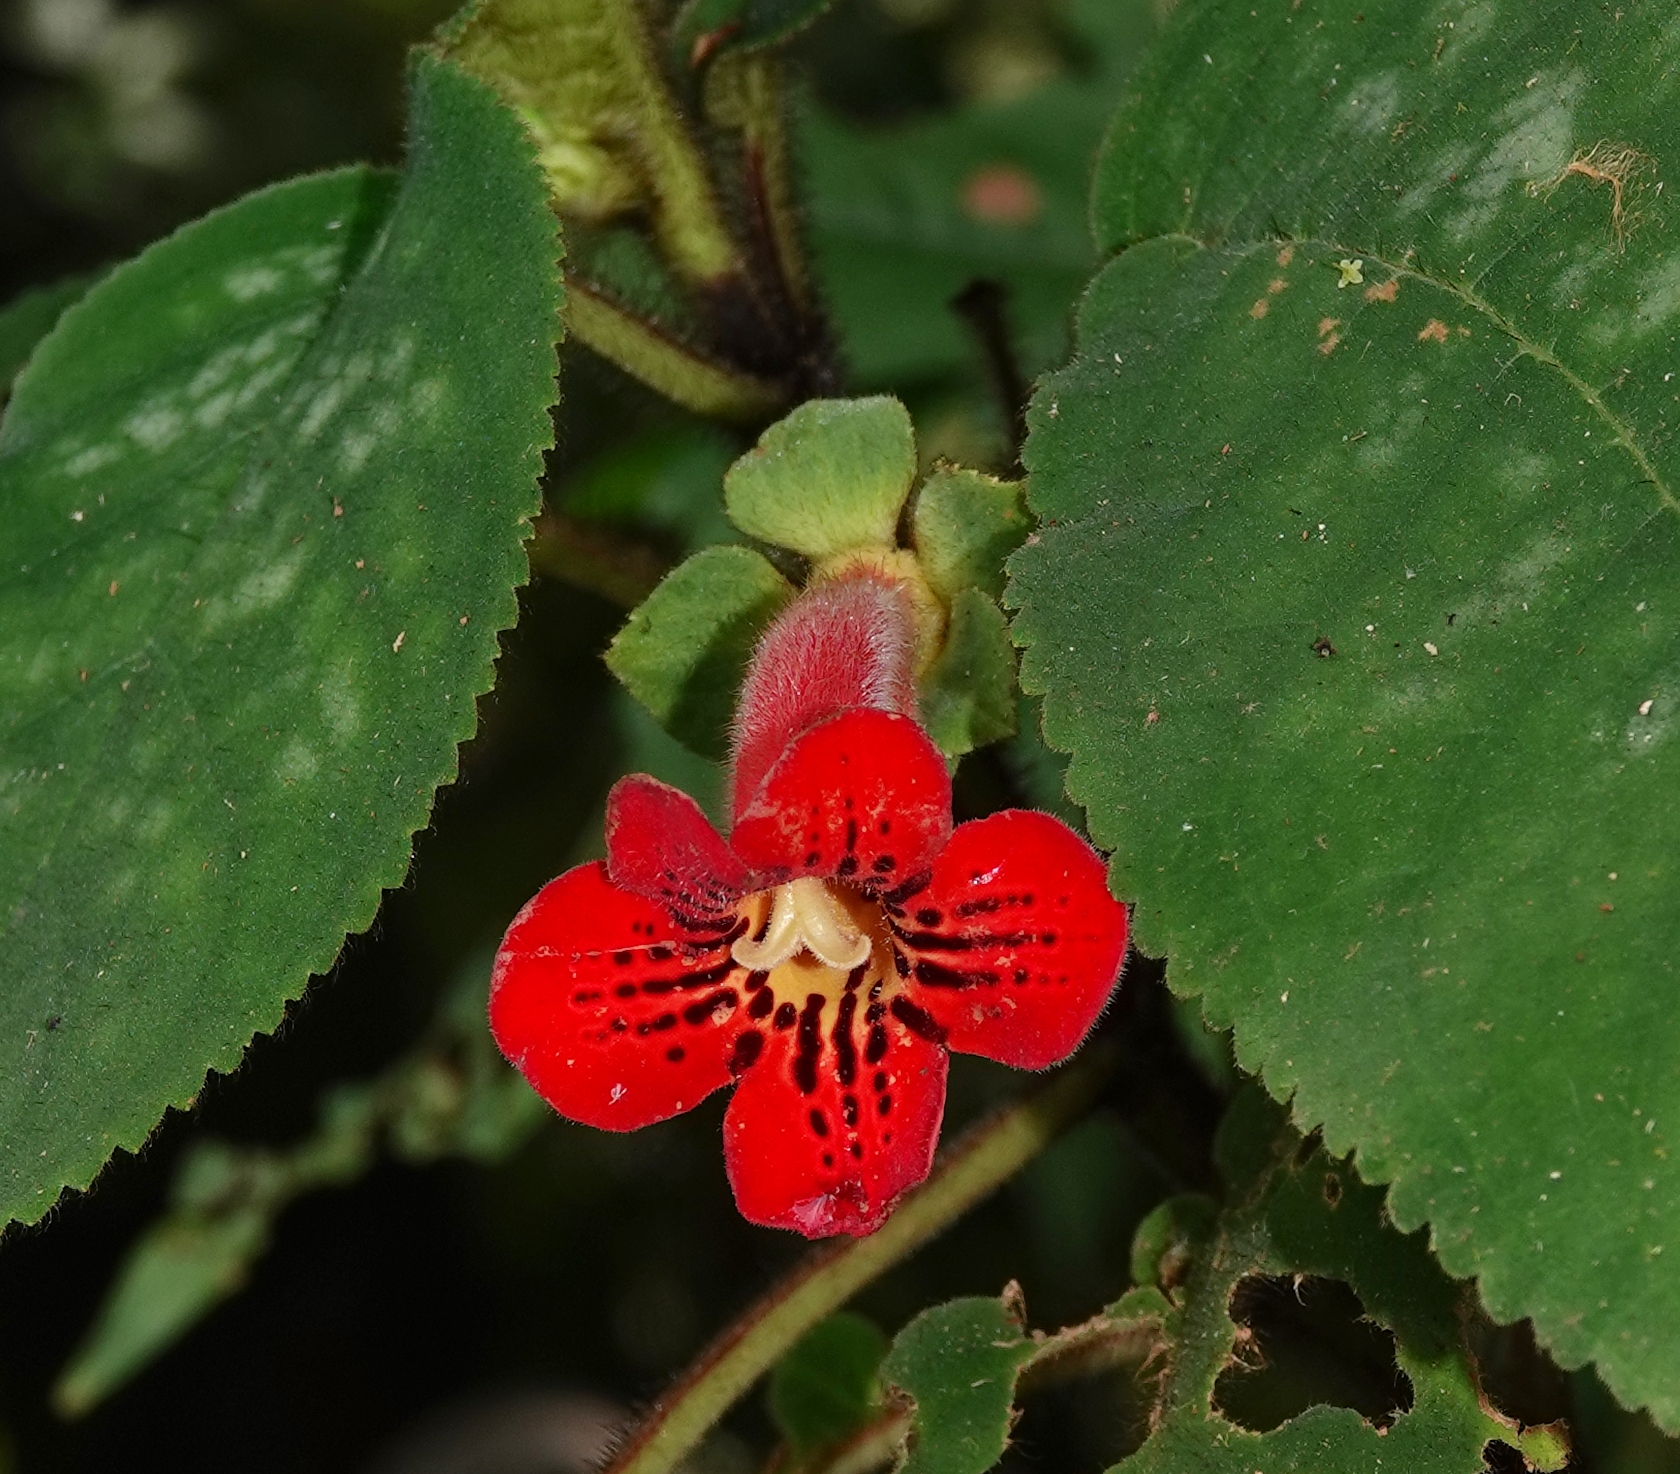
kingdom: Plantae
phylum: Tracheophyta
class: Magnoliopsida
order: Lamiales
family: Gesneriaceae
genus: Kohleria
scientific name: Kohleria grandiflora
